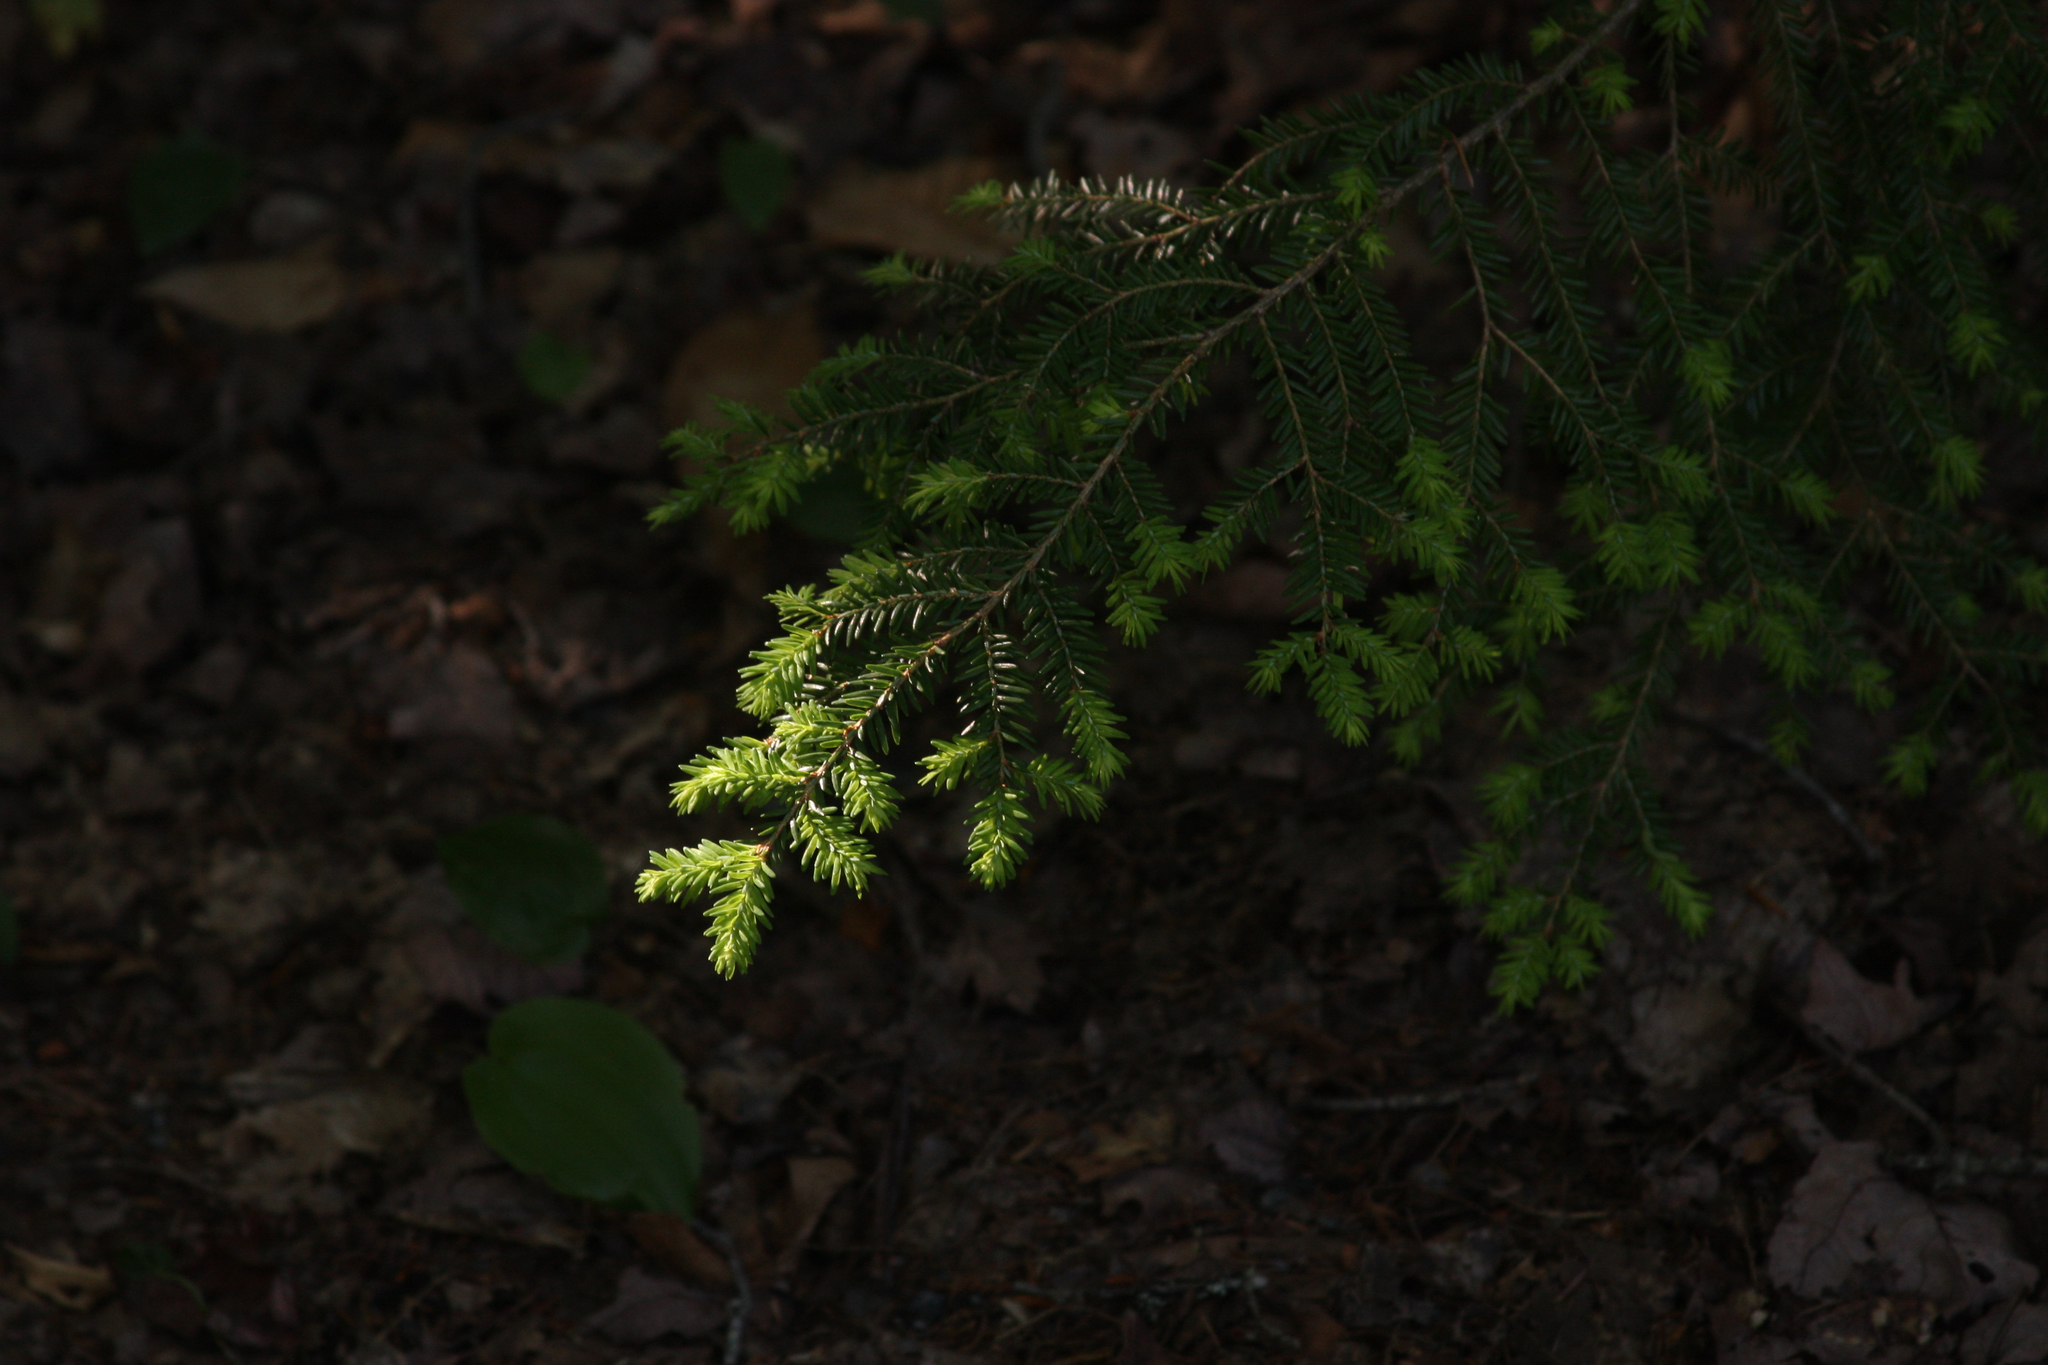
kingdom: Plantae
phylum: Tracheophyta
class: Pinopsida
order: Pinales
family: Pinaceae
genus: Tsuga
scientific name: Tsuga canadensis
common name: Eastern hemlock
